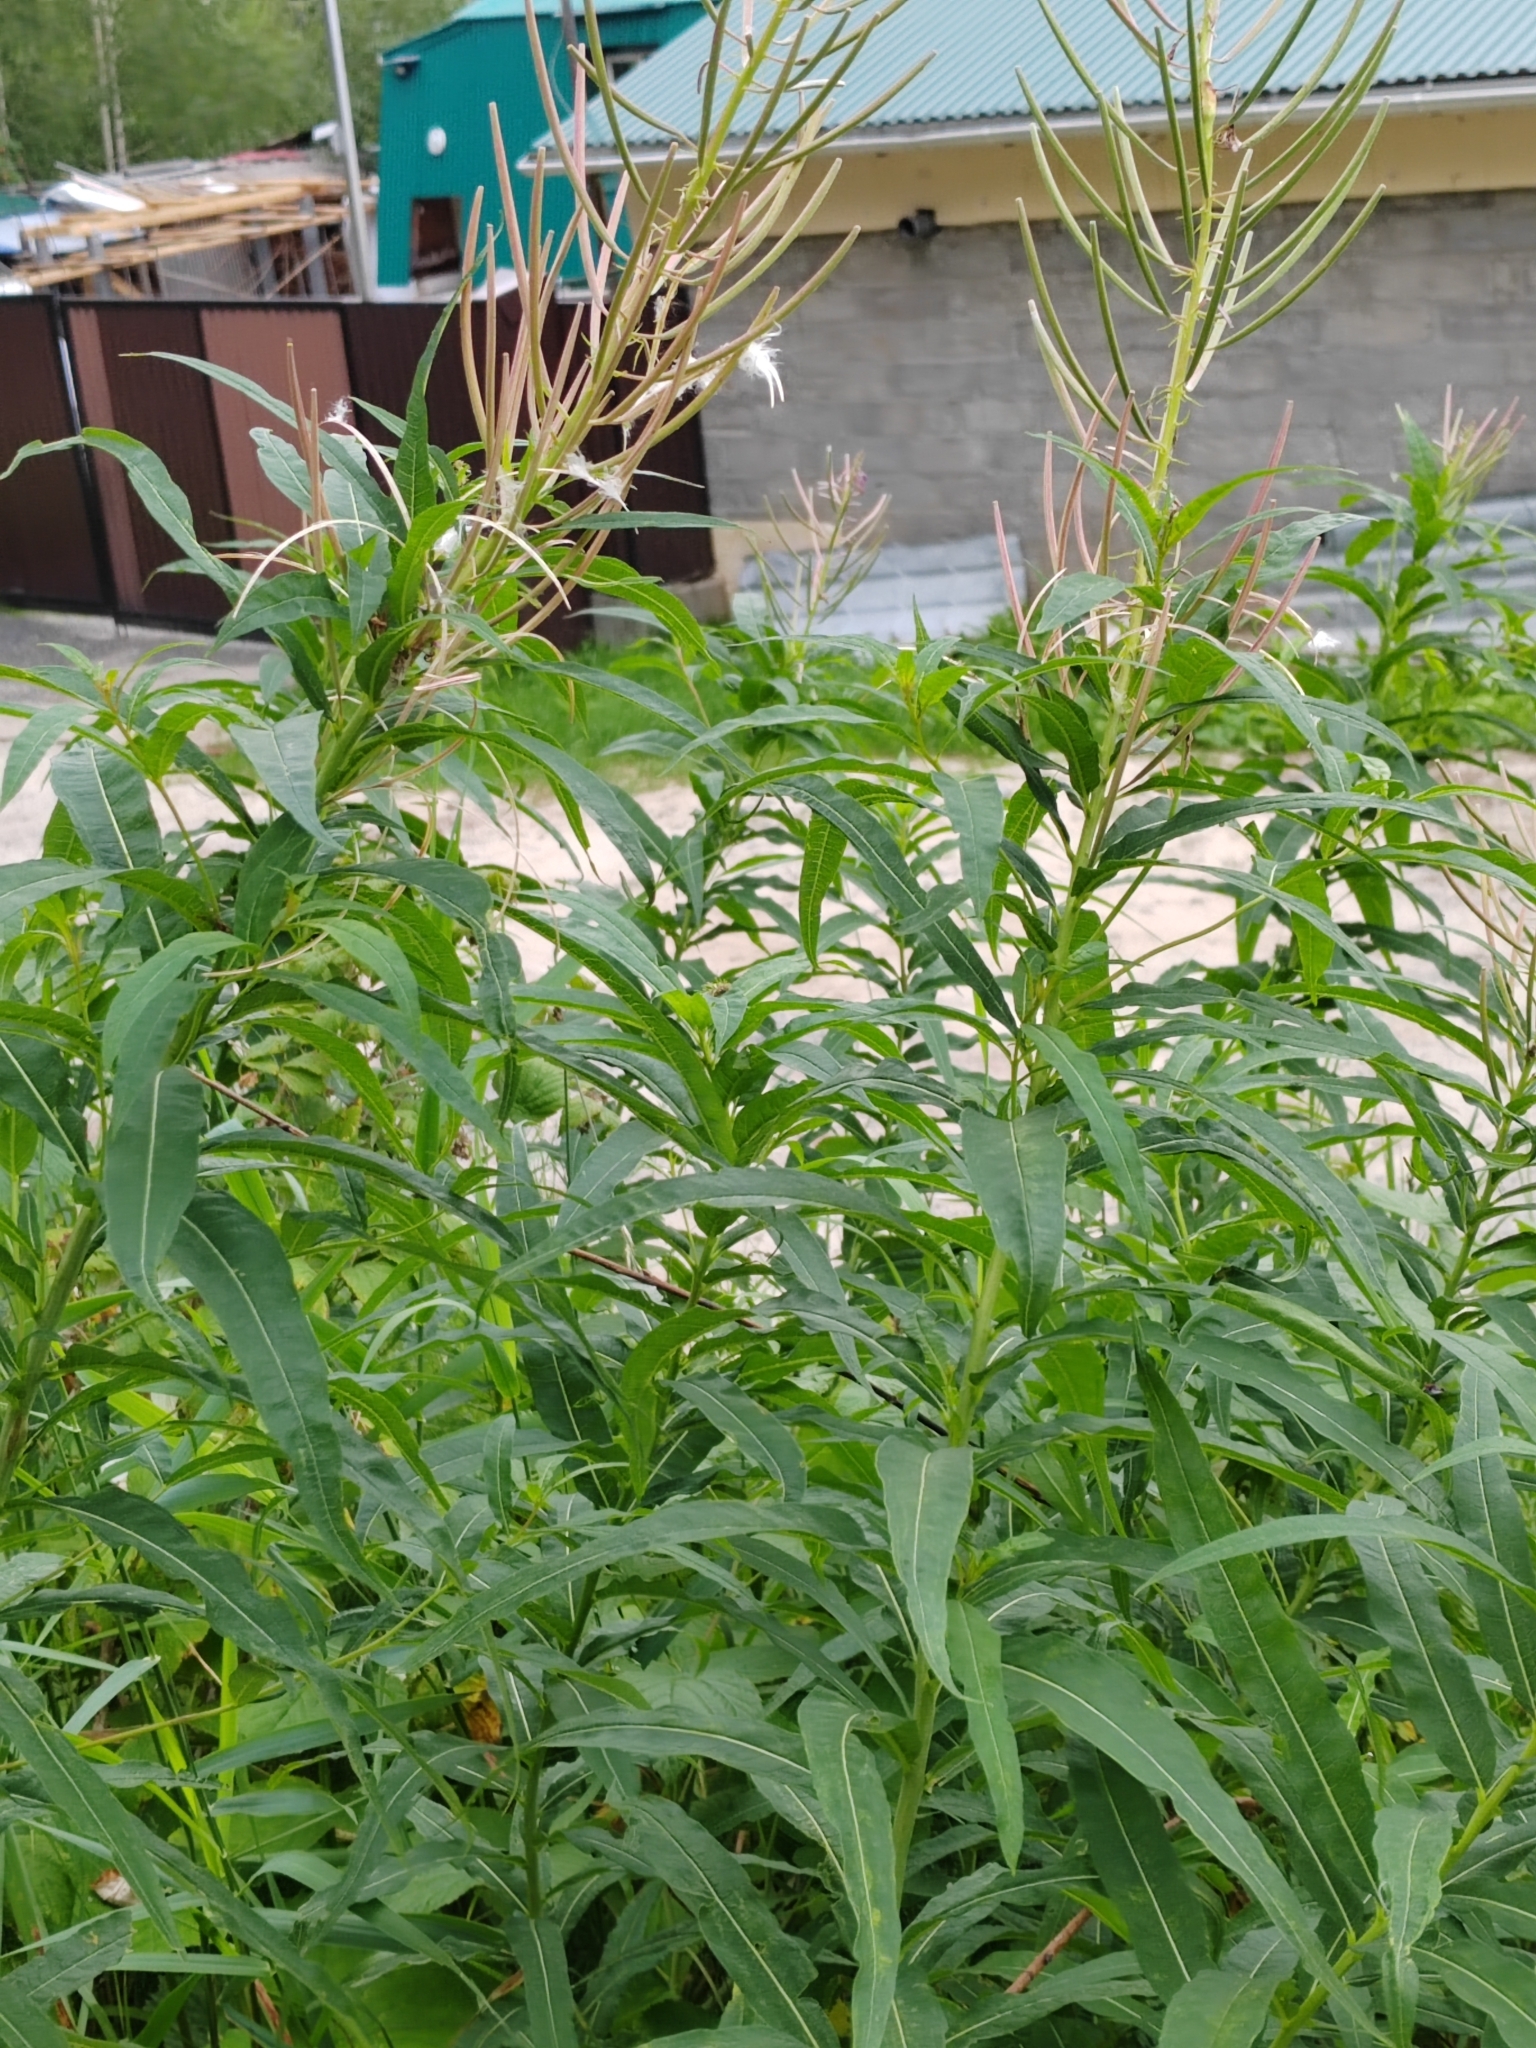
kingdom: Plantae
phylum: Tracheophyta
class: Magnoliopsida
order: Myrtales
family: Onagraceae
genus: Chamaenerion
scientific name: Chamaenerion angustifolium
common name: Fireweed
